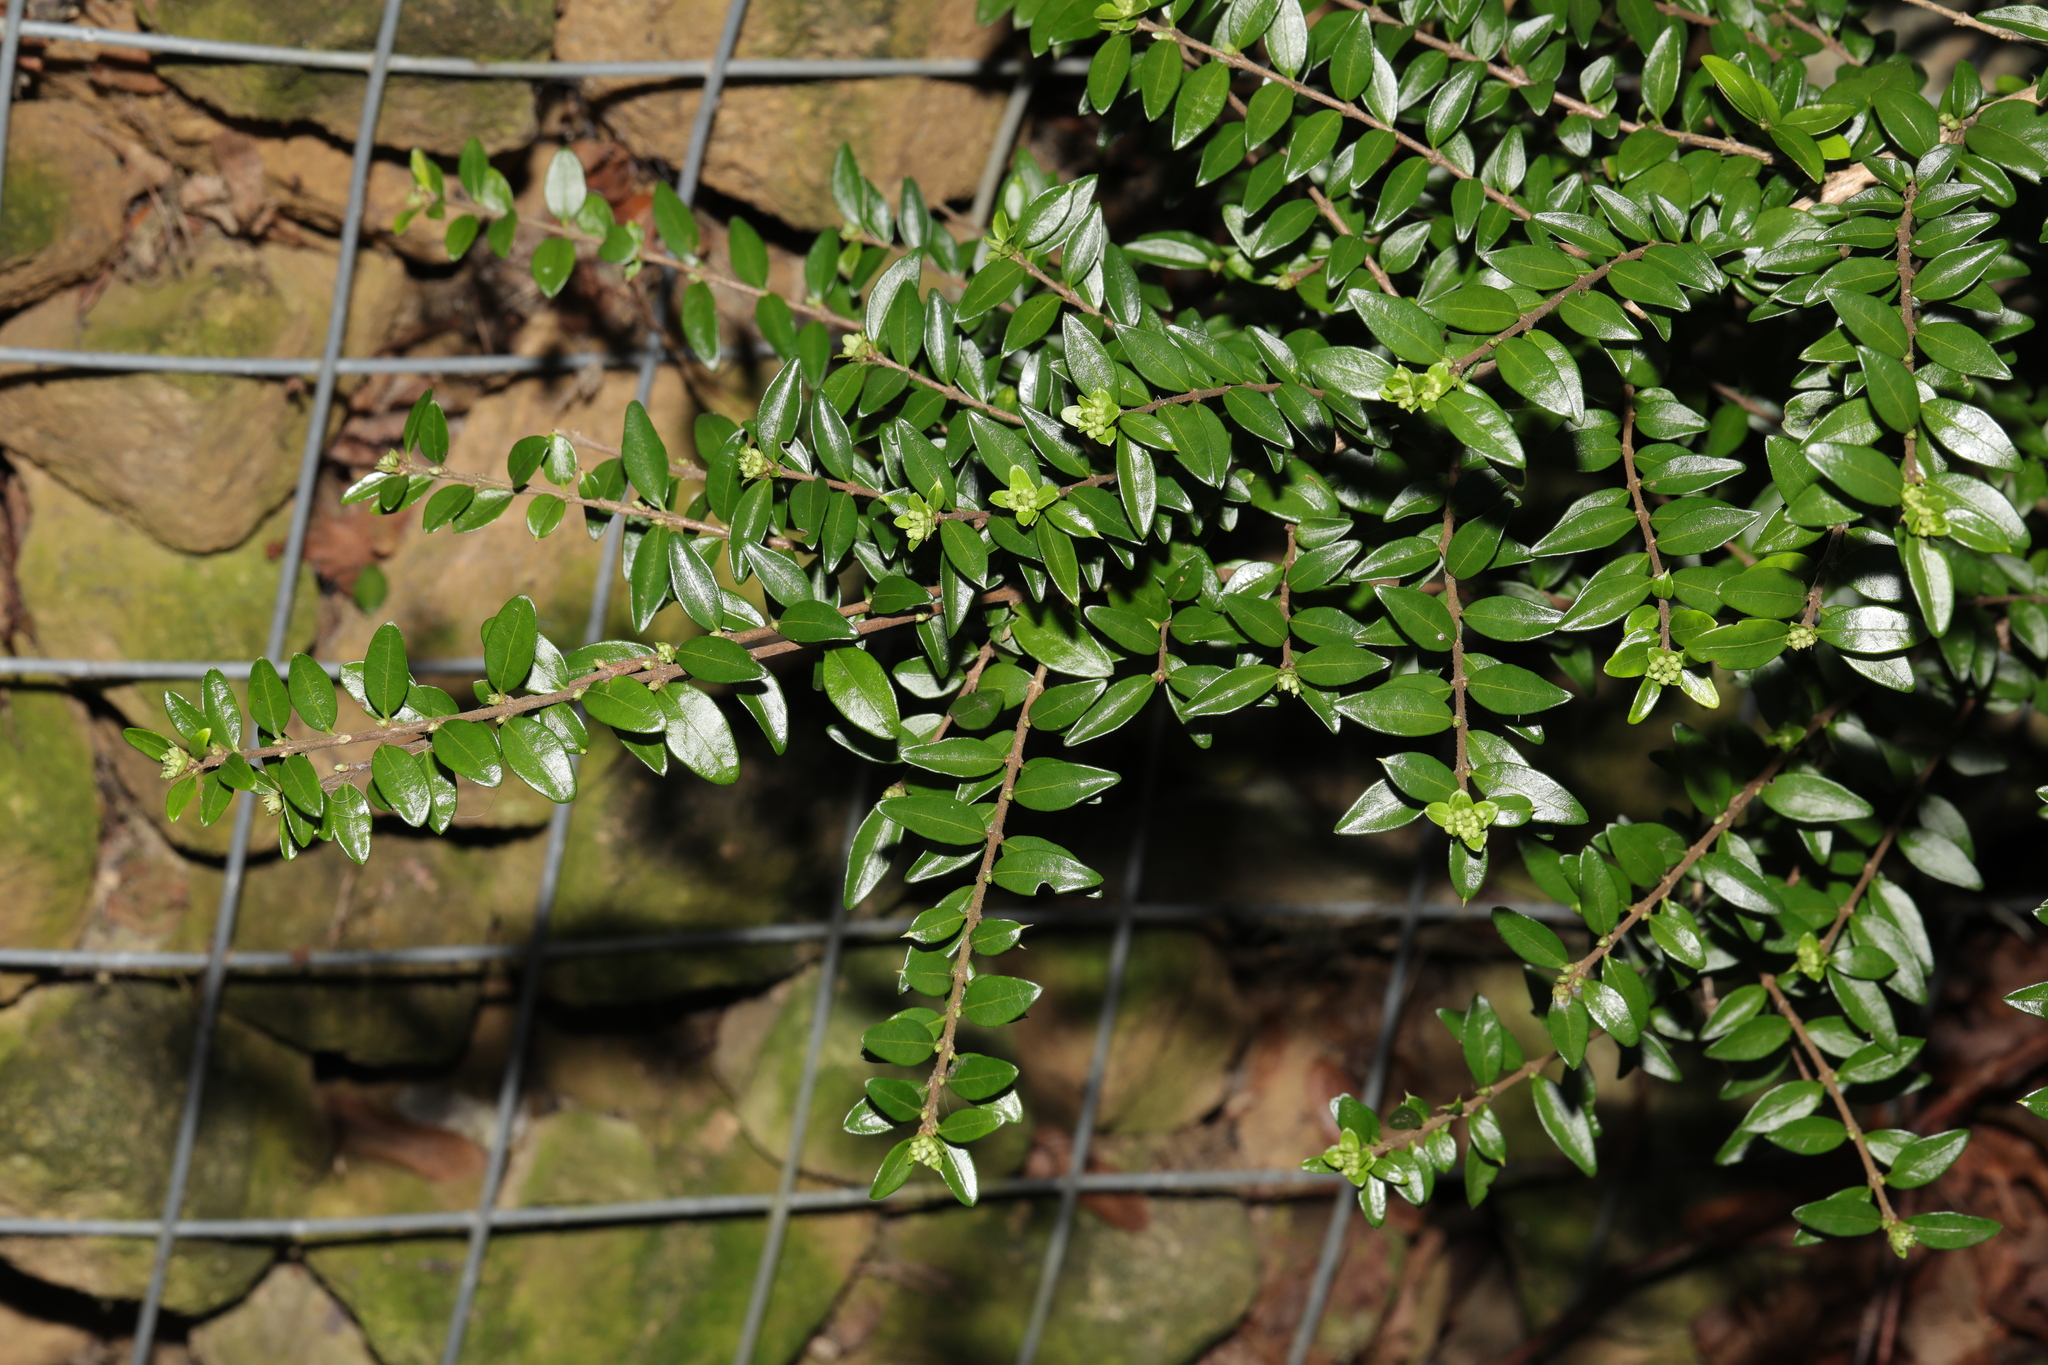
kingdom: Plantae
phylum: Tracheophyta
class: Magnoliopsida
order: Dipsacales
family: Caprifoliaceae
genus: Lonicera
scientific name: Lonicera ligustrina
